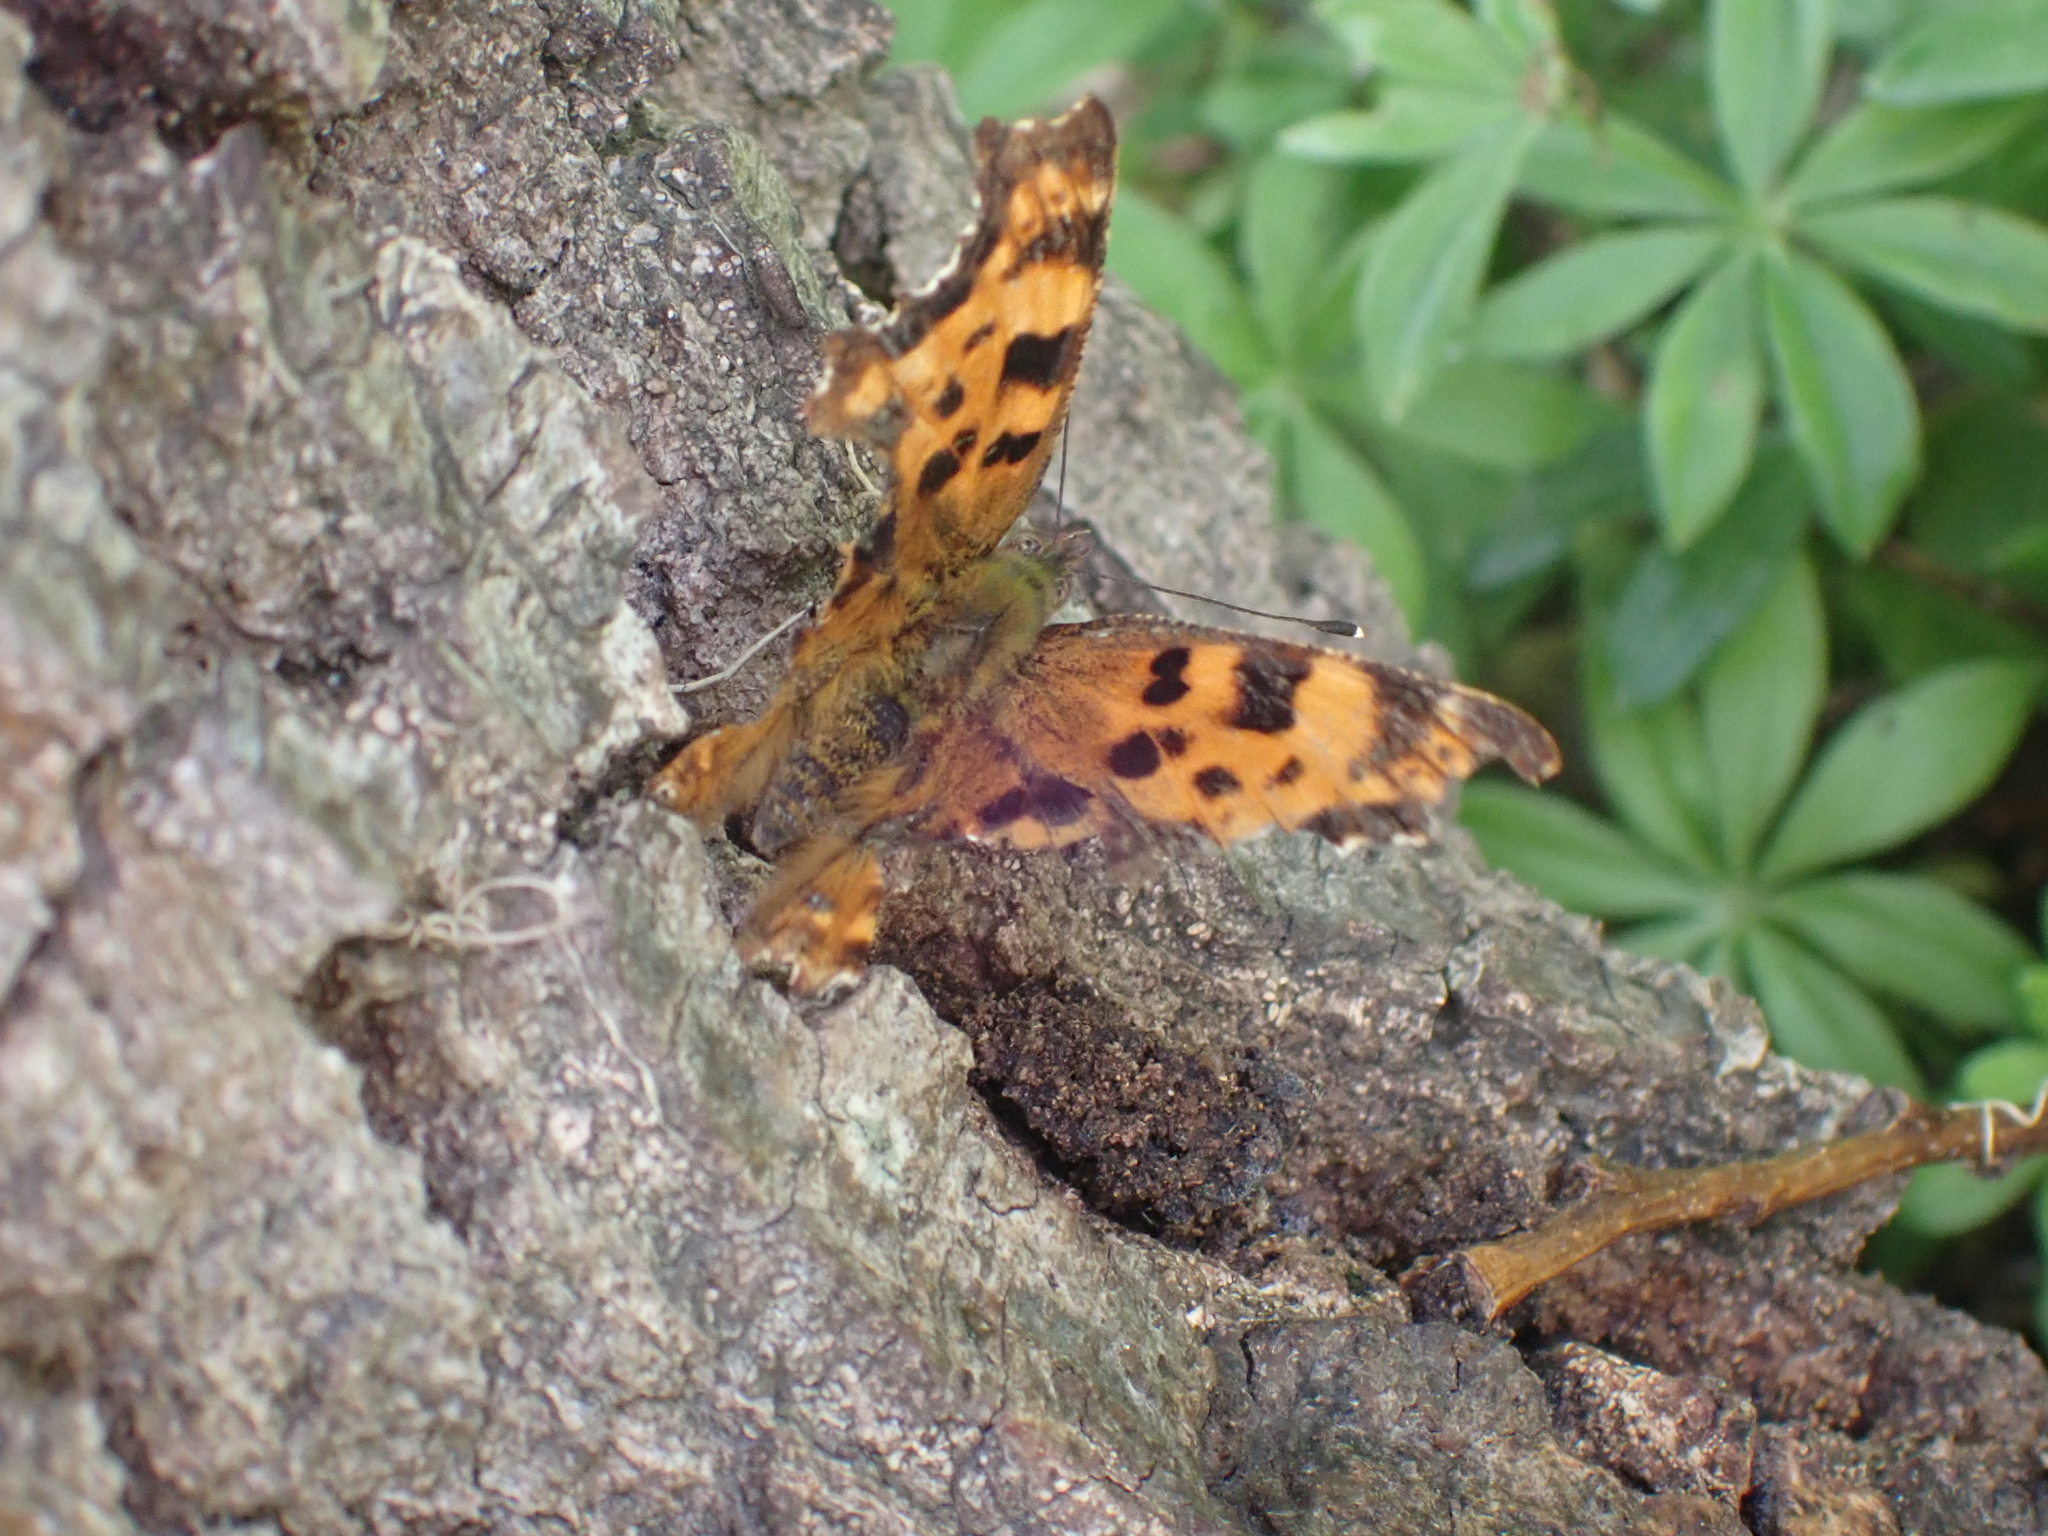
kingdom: Animalia
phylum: Arthropoda
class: Insecta
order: Lepidoptera
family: Nymphalidae
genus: Polygonia
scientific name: Polygonia c-album
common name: Comma
